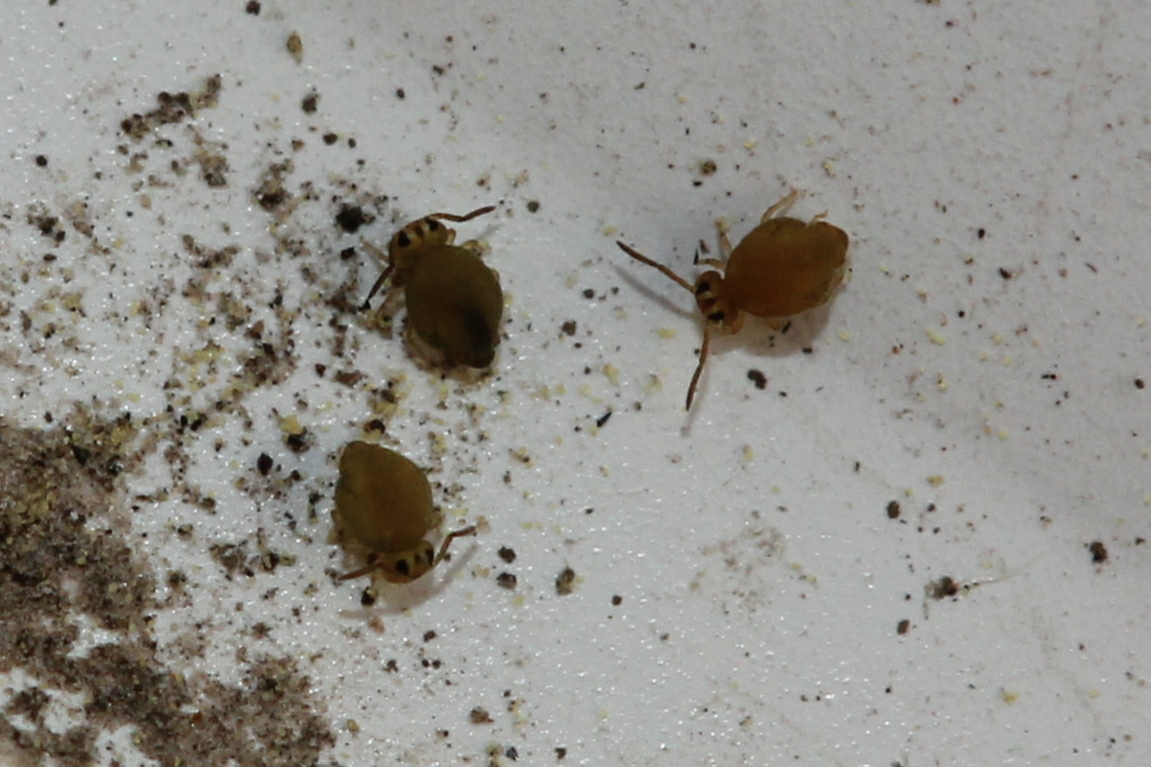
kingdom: Animalia
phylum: Arthropoda
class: Collembola
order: Symphypleona
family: Katiannidae
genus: Sminthurinus
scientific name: Sminthurinus henshawi
